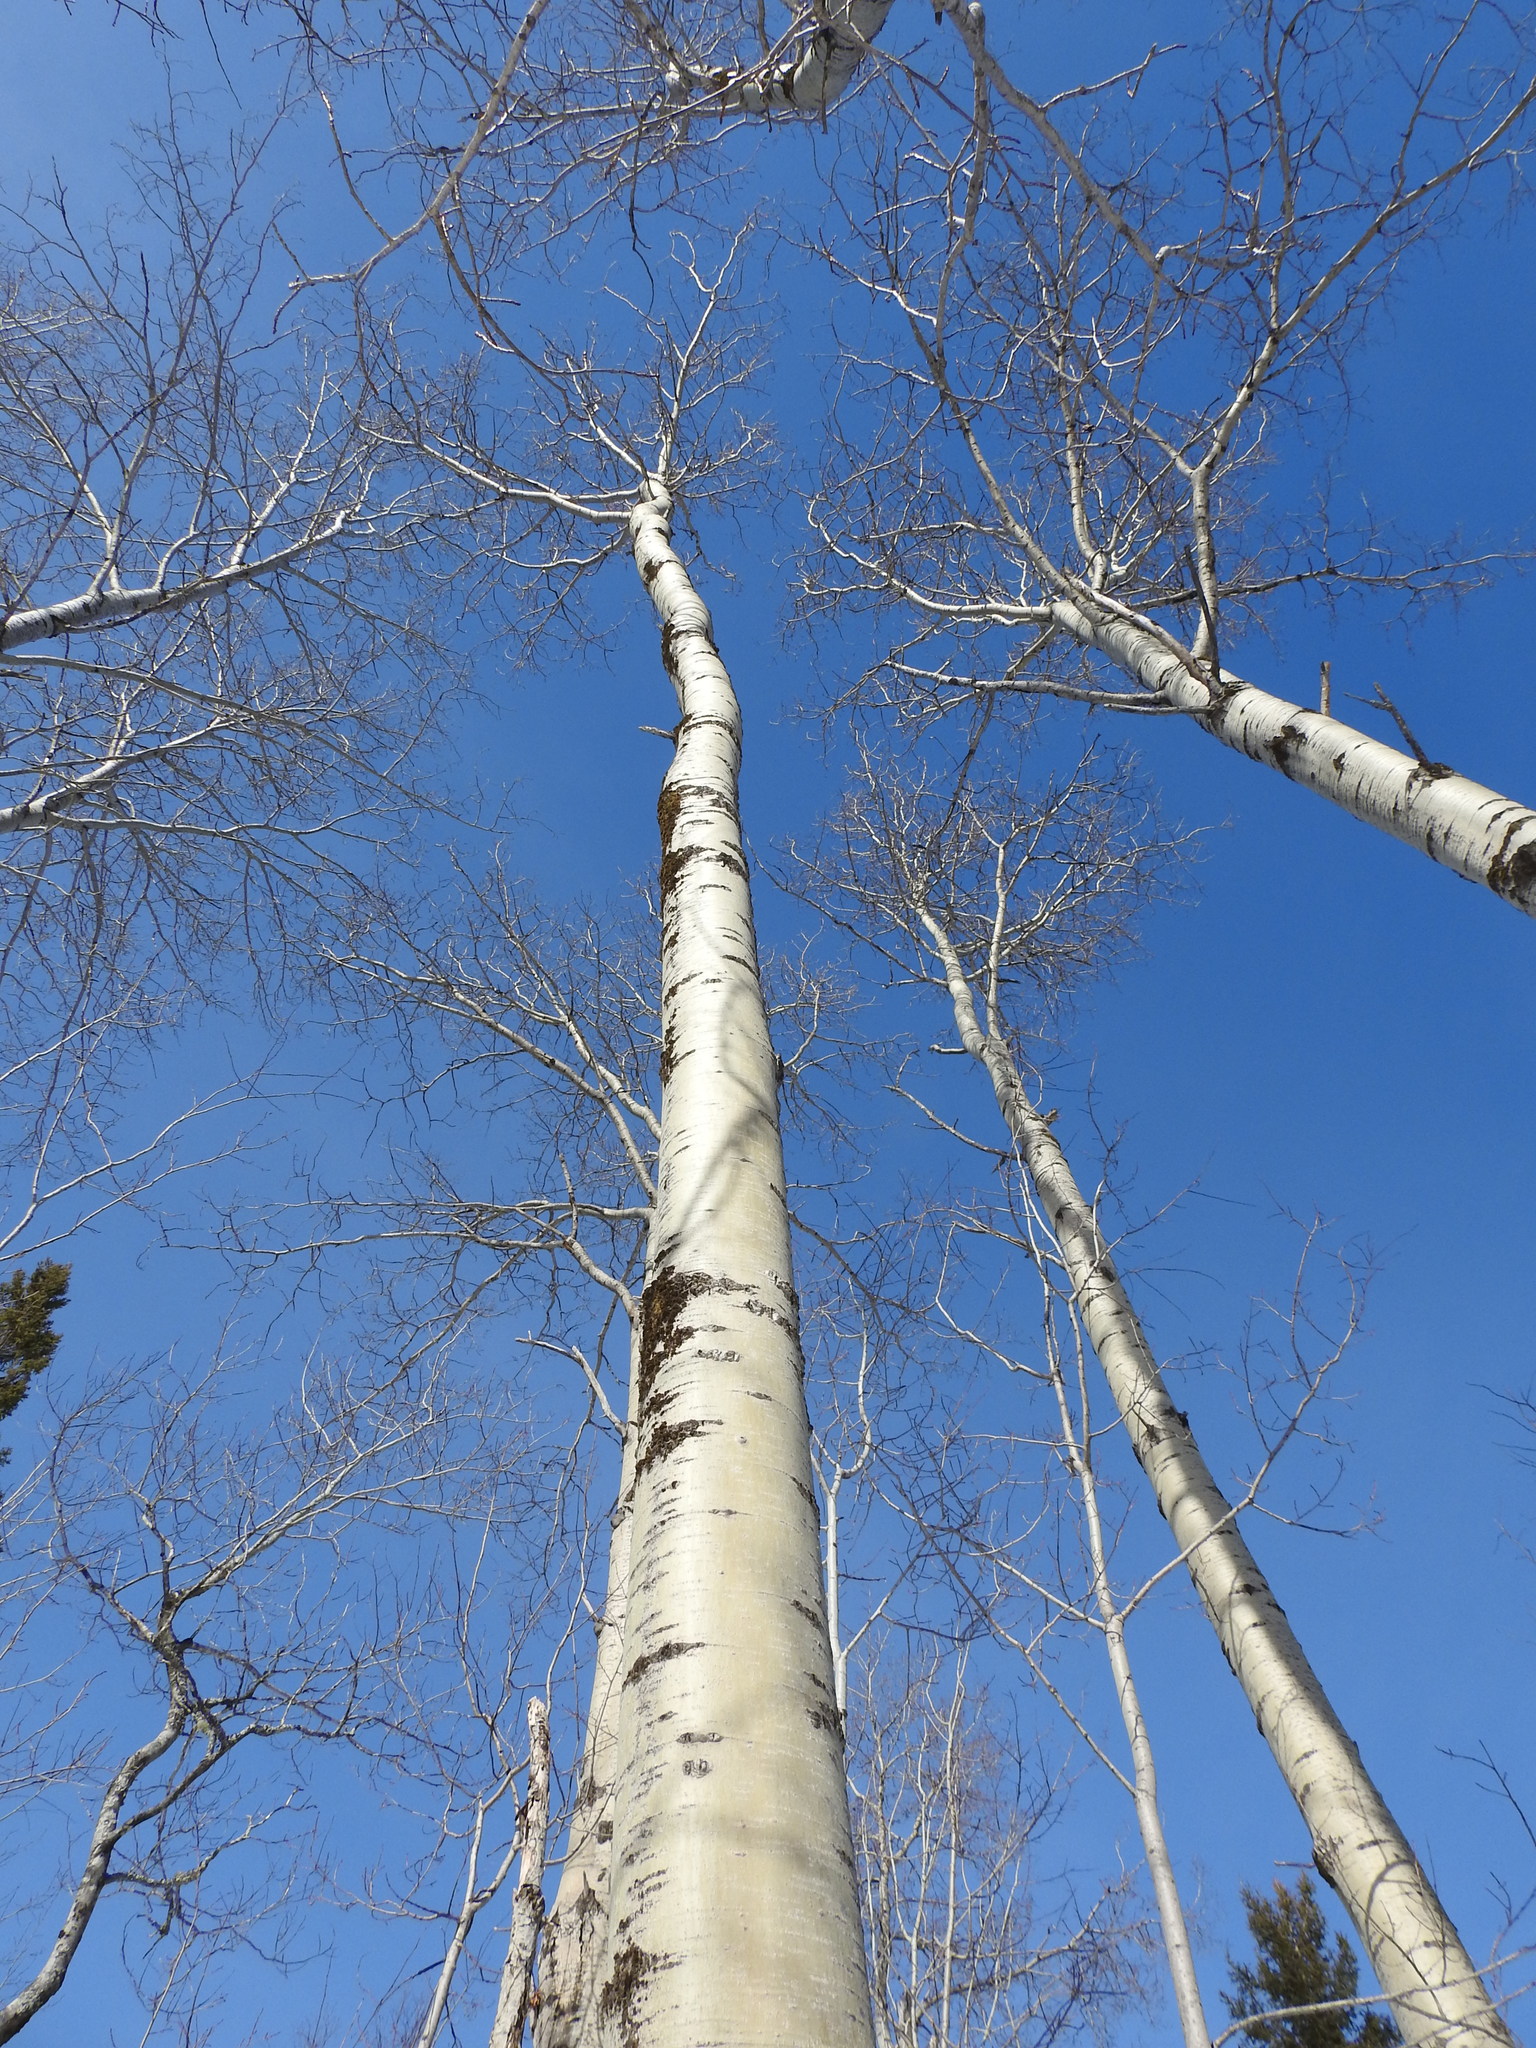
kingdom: Plantae
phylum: Tracheophyta
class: Magnoliopsida
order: Malpighiales
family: Salicaceae
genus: Populus
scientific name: Populus tremuloides
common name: Quaking aspen
